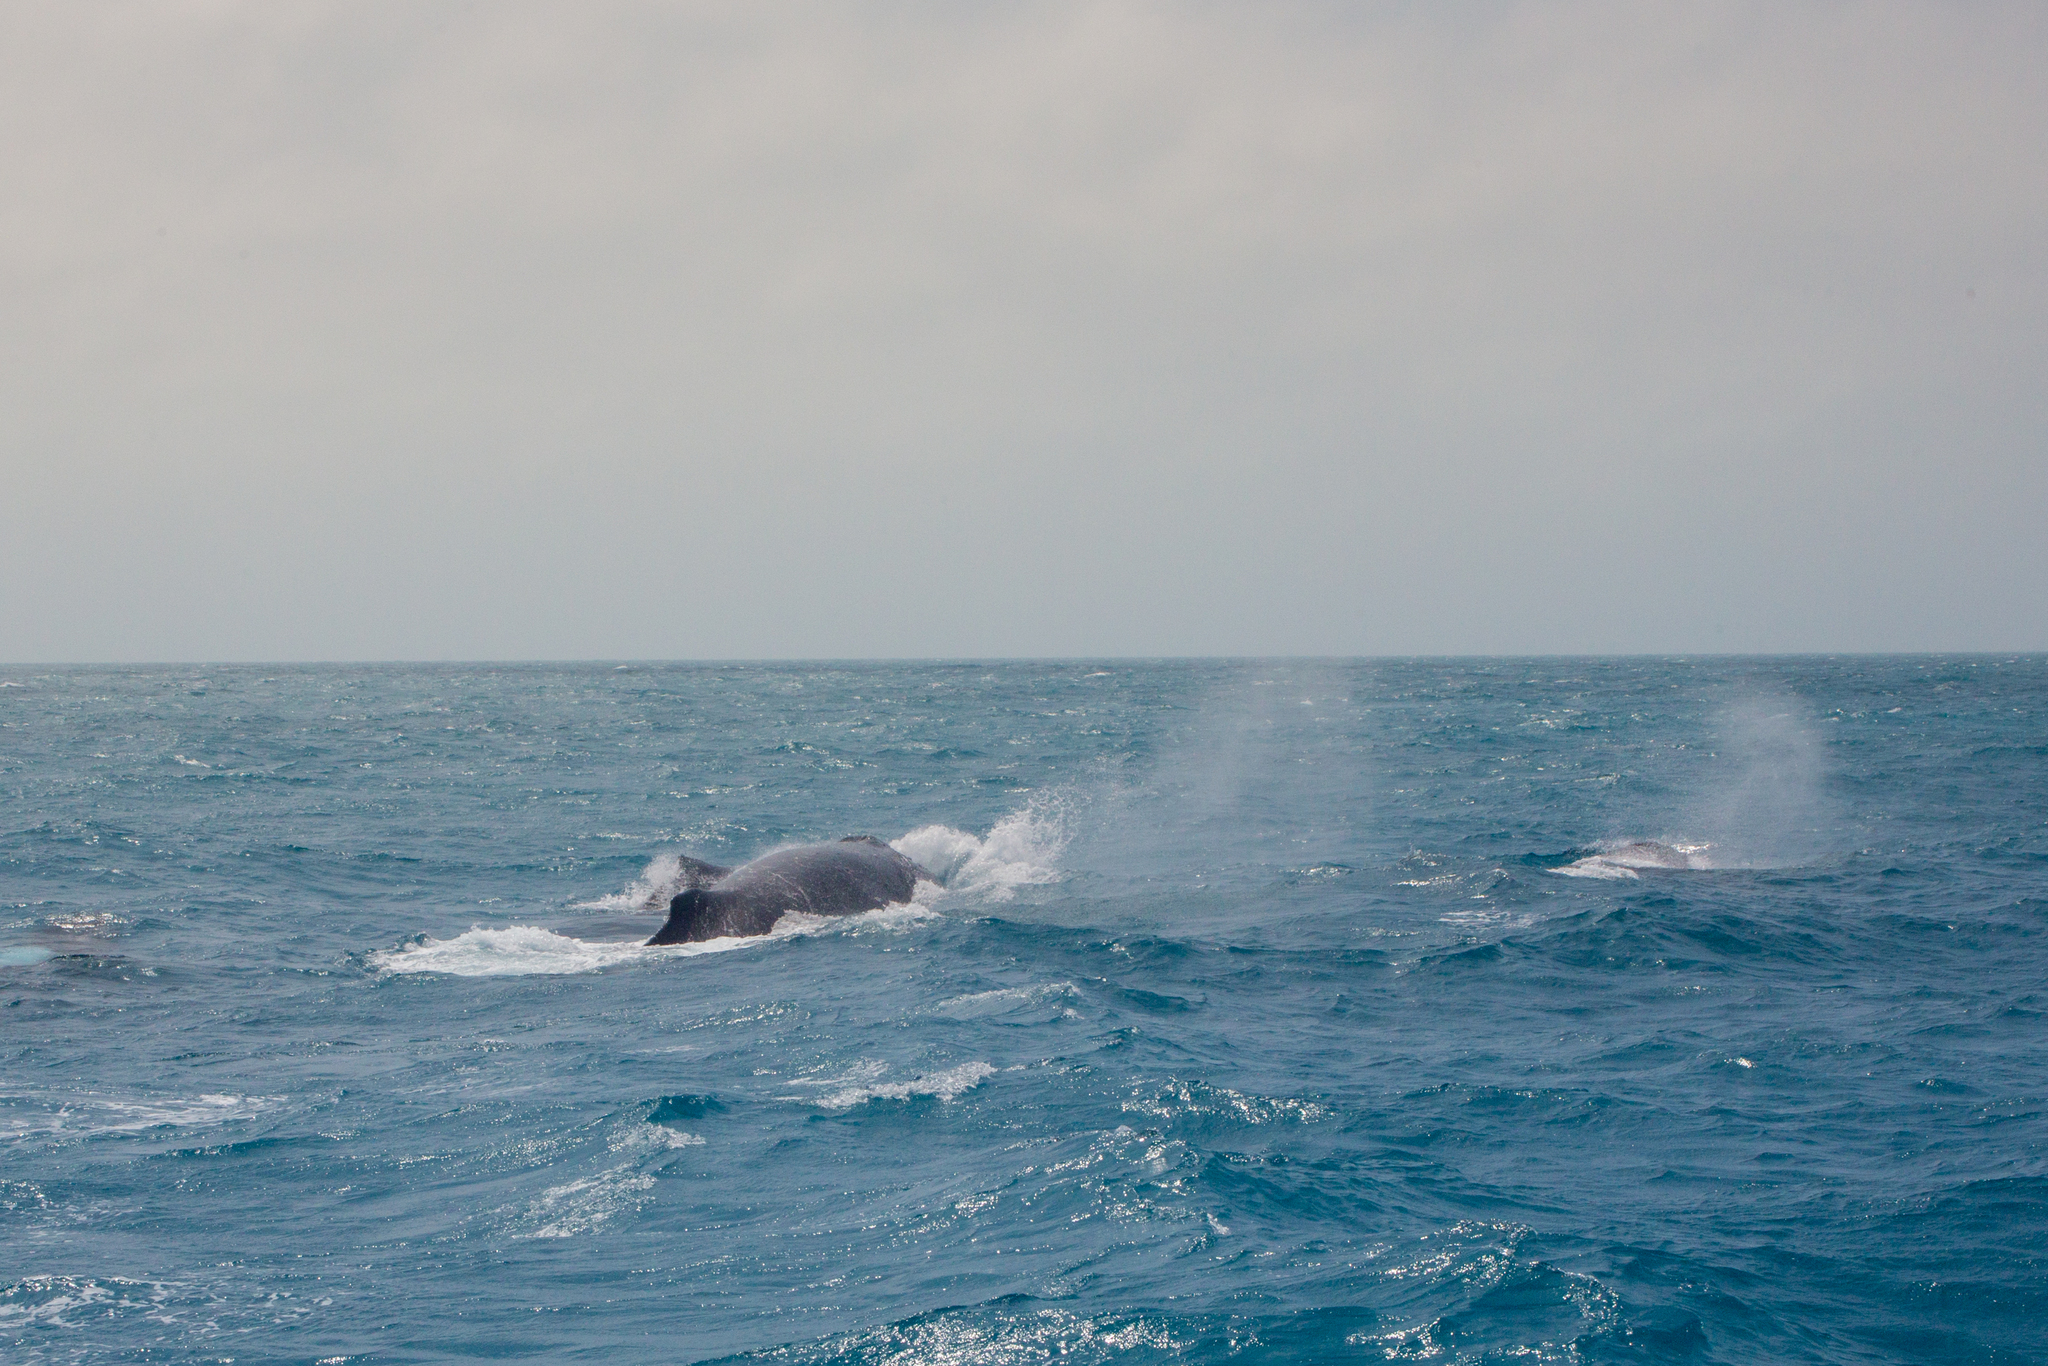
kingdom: Animalia
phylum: Chordata
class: Mammalia
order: Cetacea
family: Balaenopteridae
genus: Megaptera
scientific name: Megaptera novaeangliae
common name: Humpback whale
